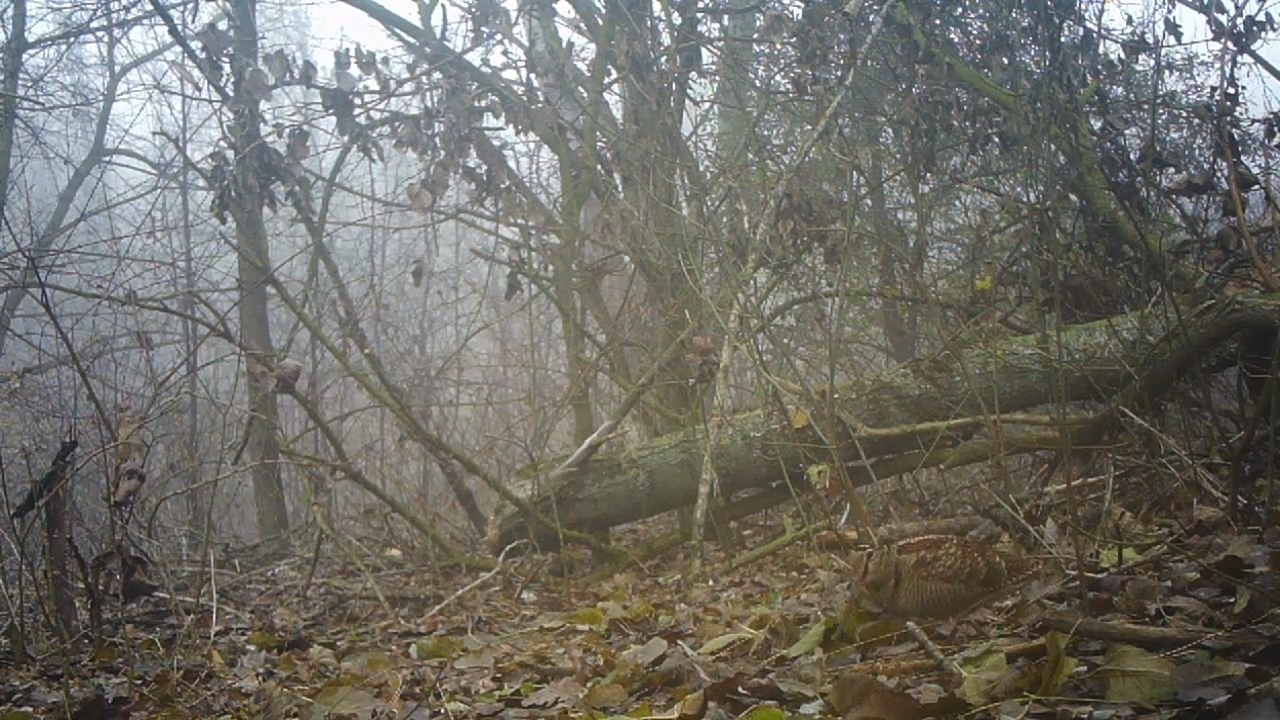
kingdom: Animalia
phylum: Chordata
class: Aves
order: Charadriiformes
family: Scolopacidae
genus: Scolopax
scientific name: Scolopax rusticola
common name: Eurasian woodcock
